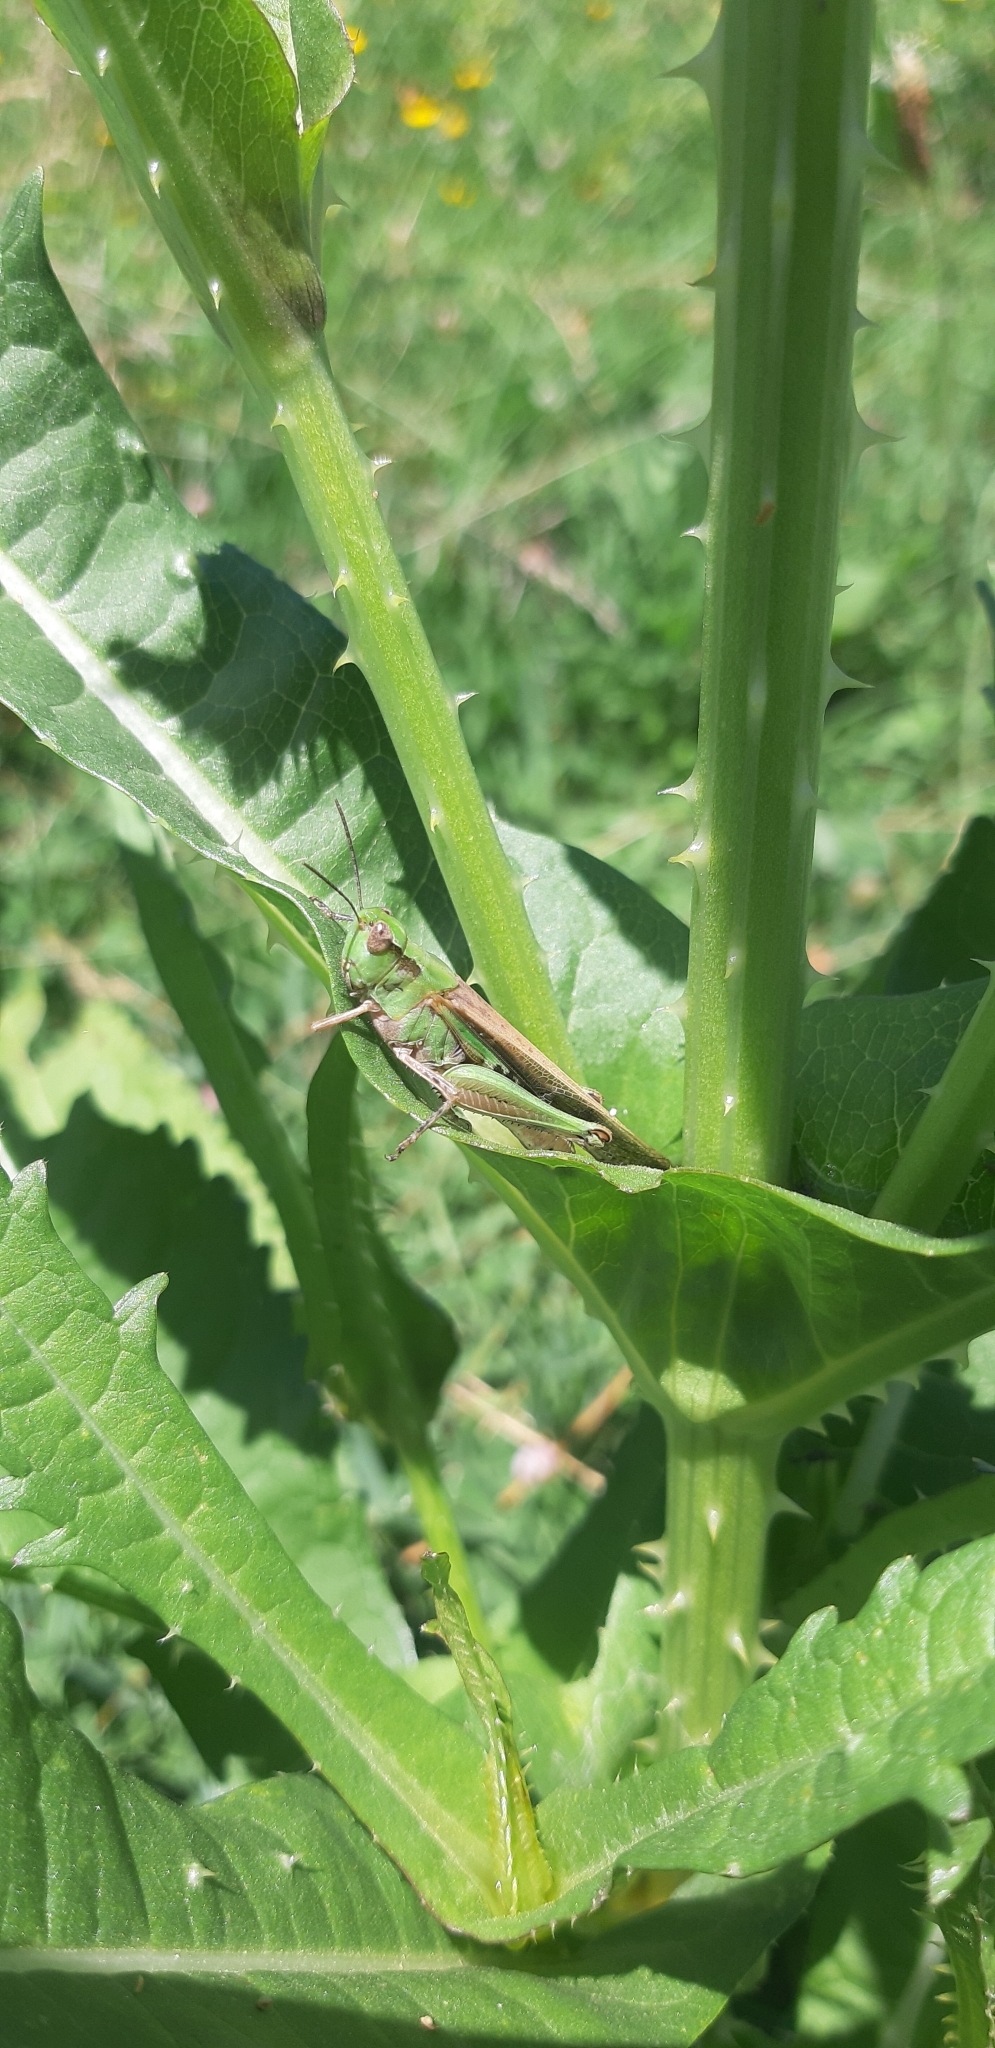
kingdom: Animalia
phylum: Arthropoda
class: Insecta
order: Orthoptera
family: Acrididae
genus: Aiolopus
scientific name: Aiolopus puissanti
